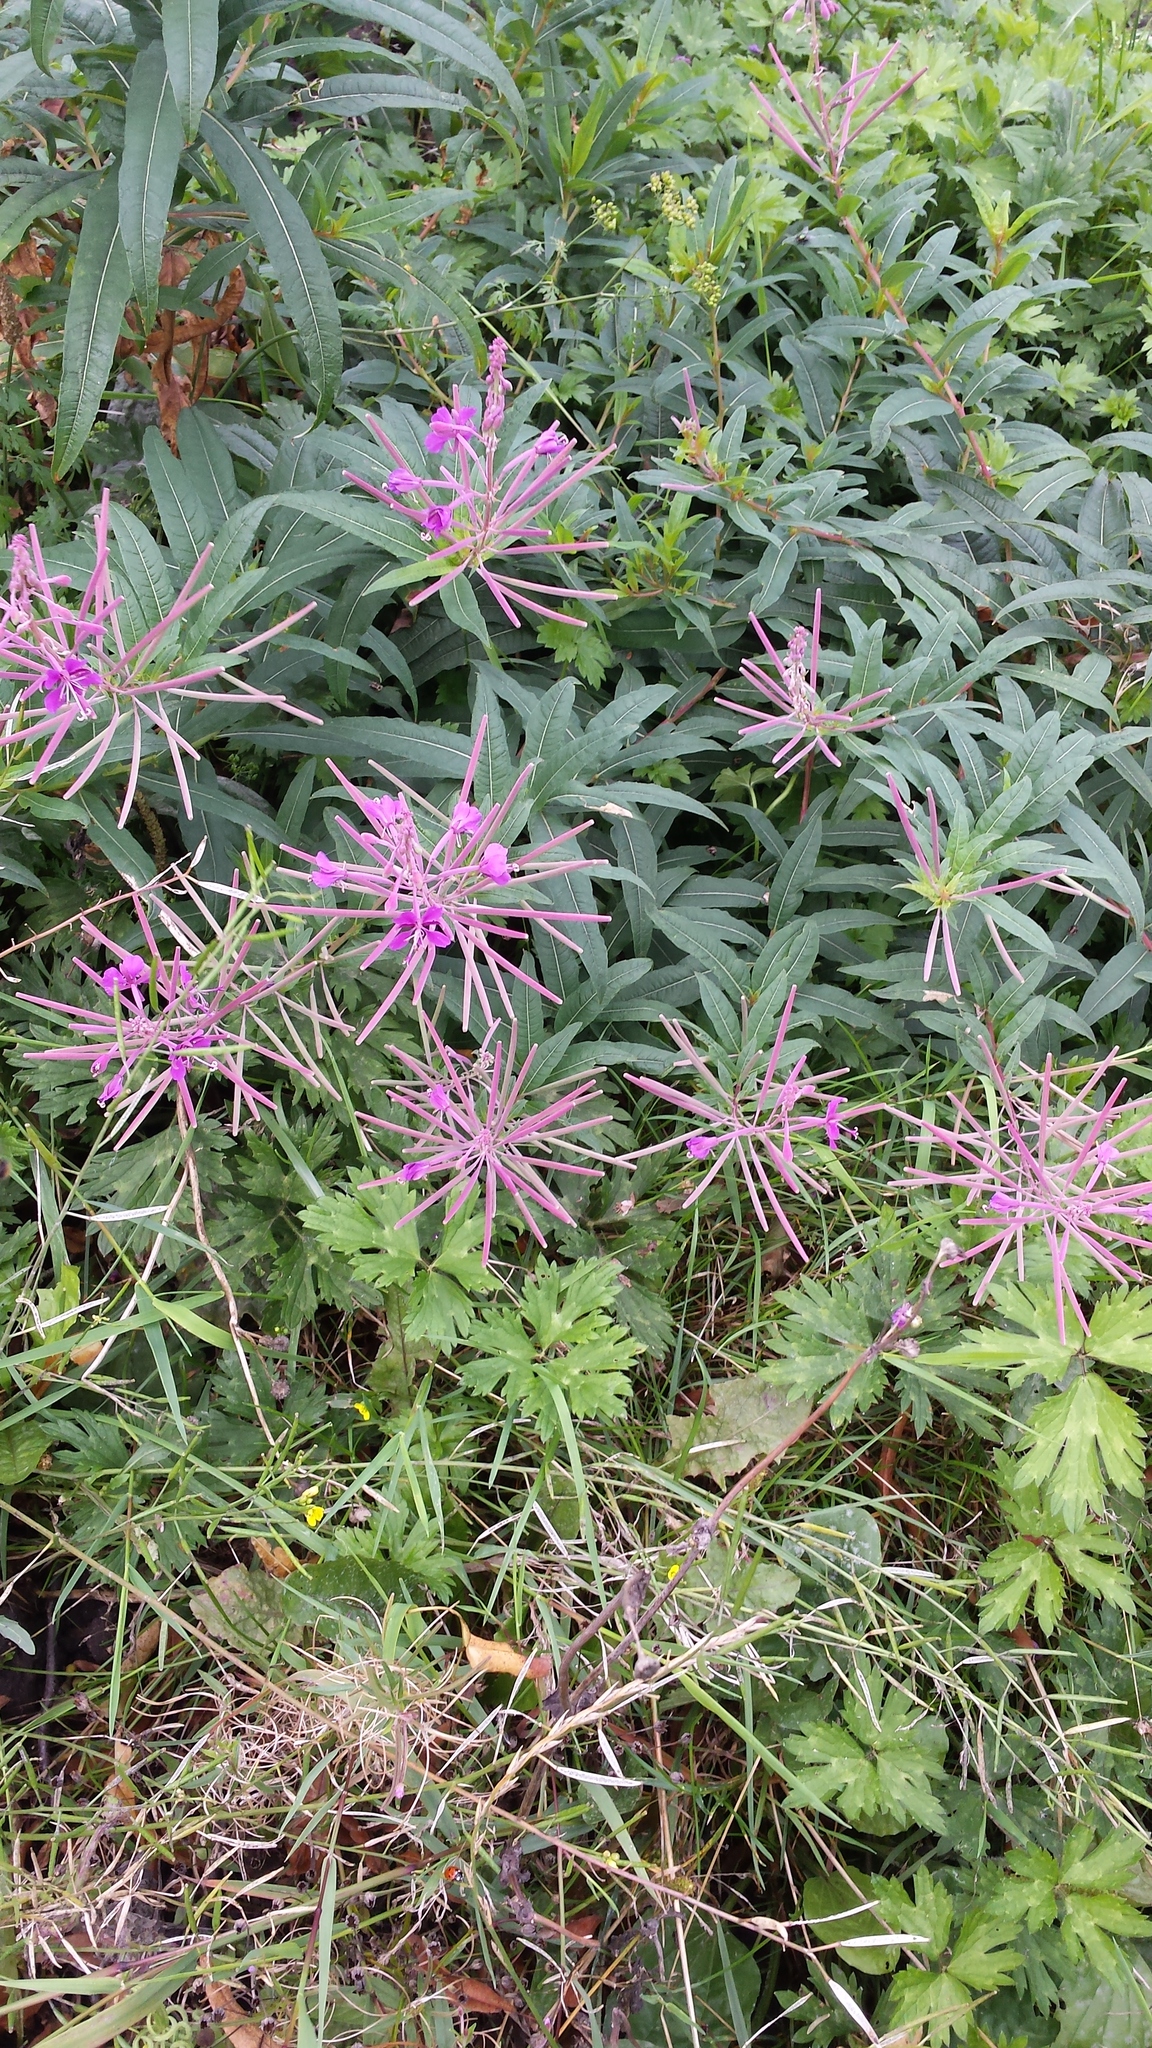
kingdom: Plantae
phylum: Tracheophyta
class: Magnoliopsida
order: Myrtales
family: Onagraceae
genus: Chamaenerion
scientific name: Chamaenerion angustifolium
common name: Fireweed
